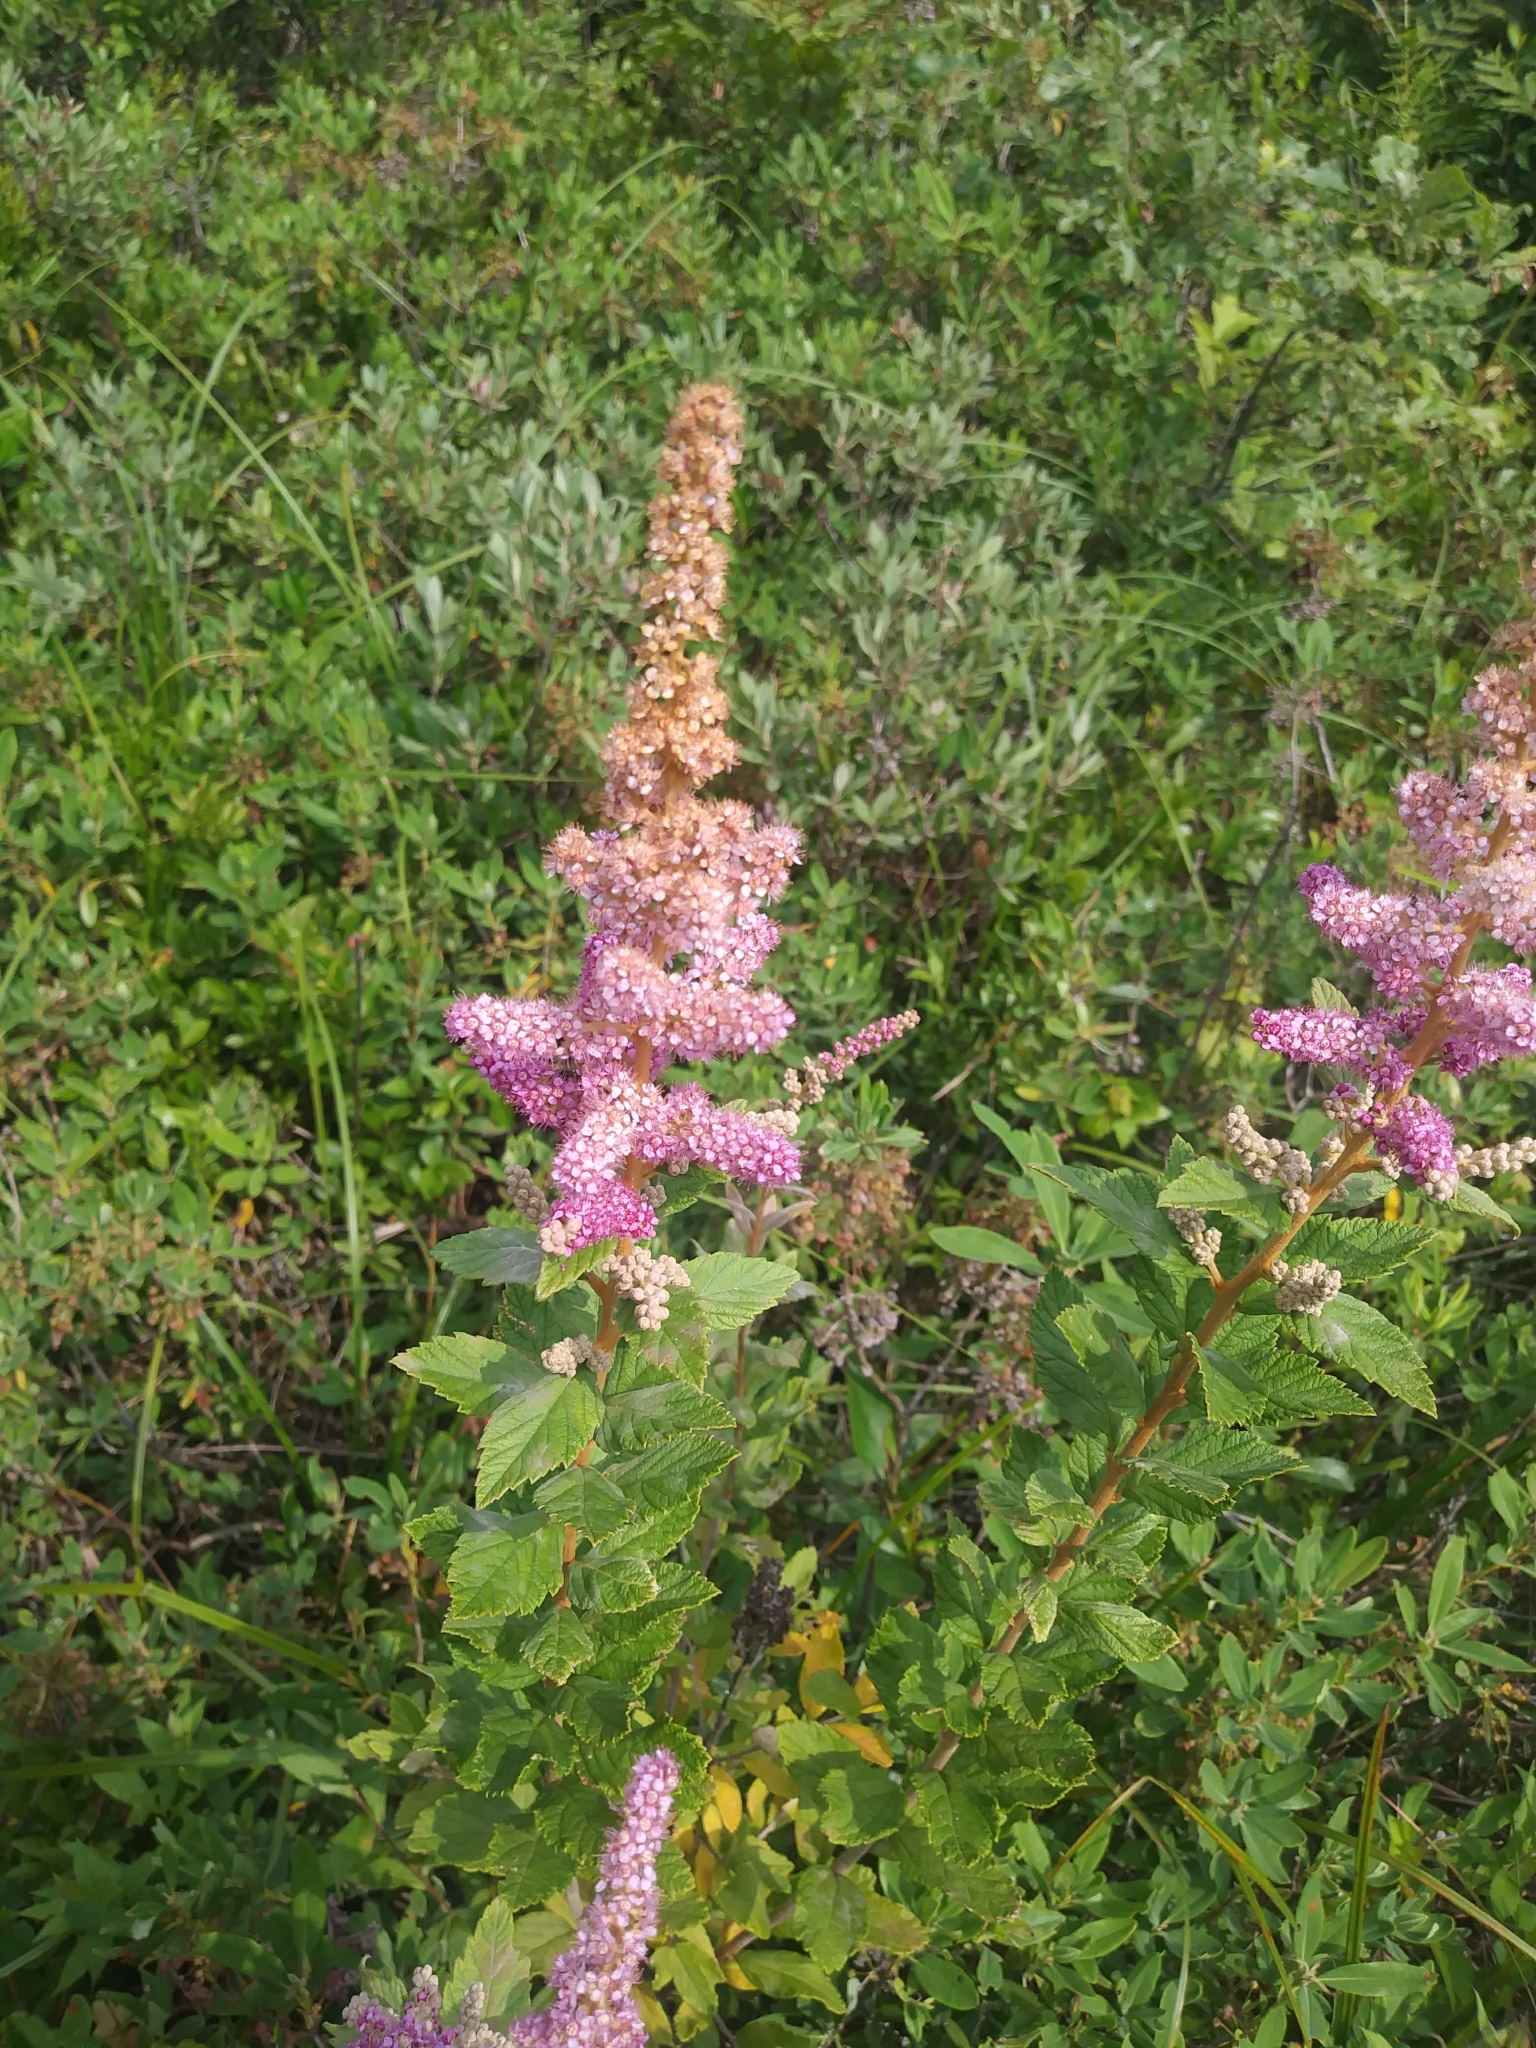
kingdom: Plantae
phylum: Tracheophyta
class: Magnoliopsida
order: Rosales
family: Rosaceae
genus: Spiraea
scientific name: Spiraea tomentosa
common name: Hardhack
